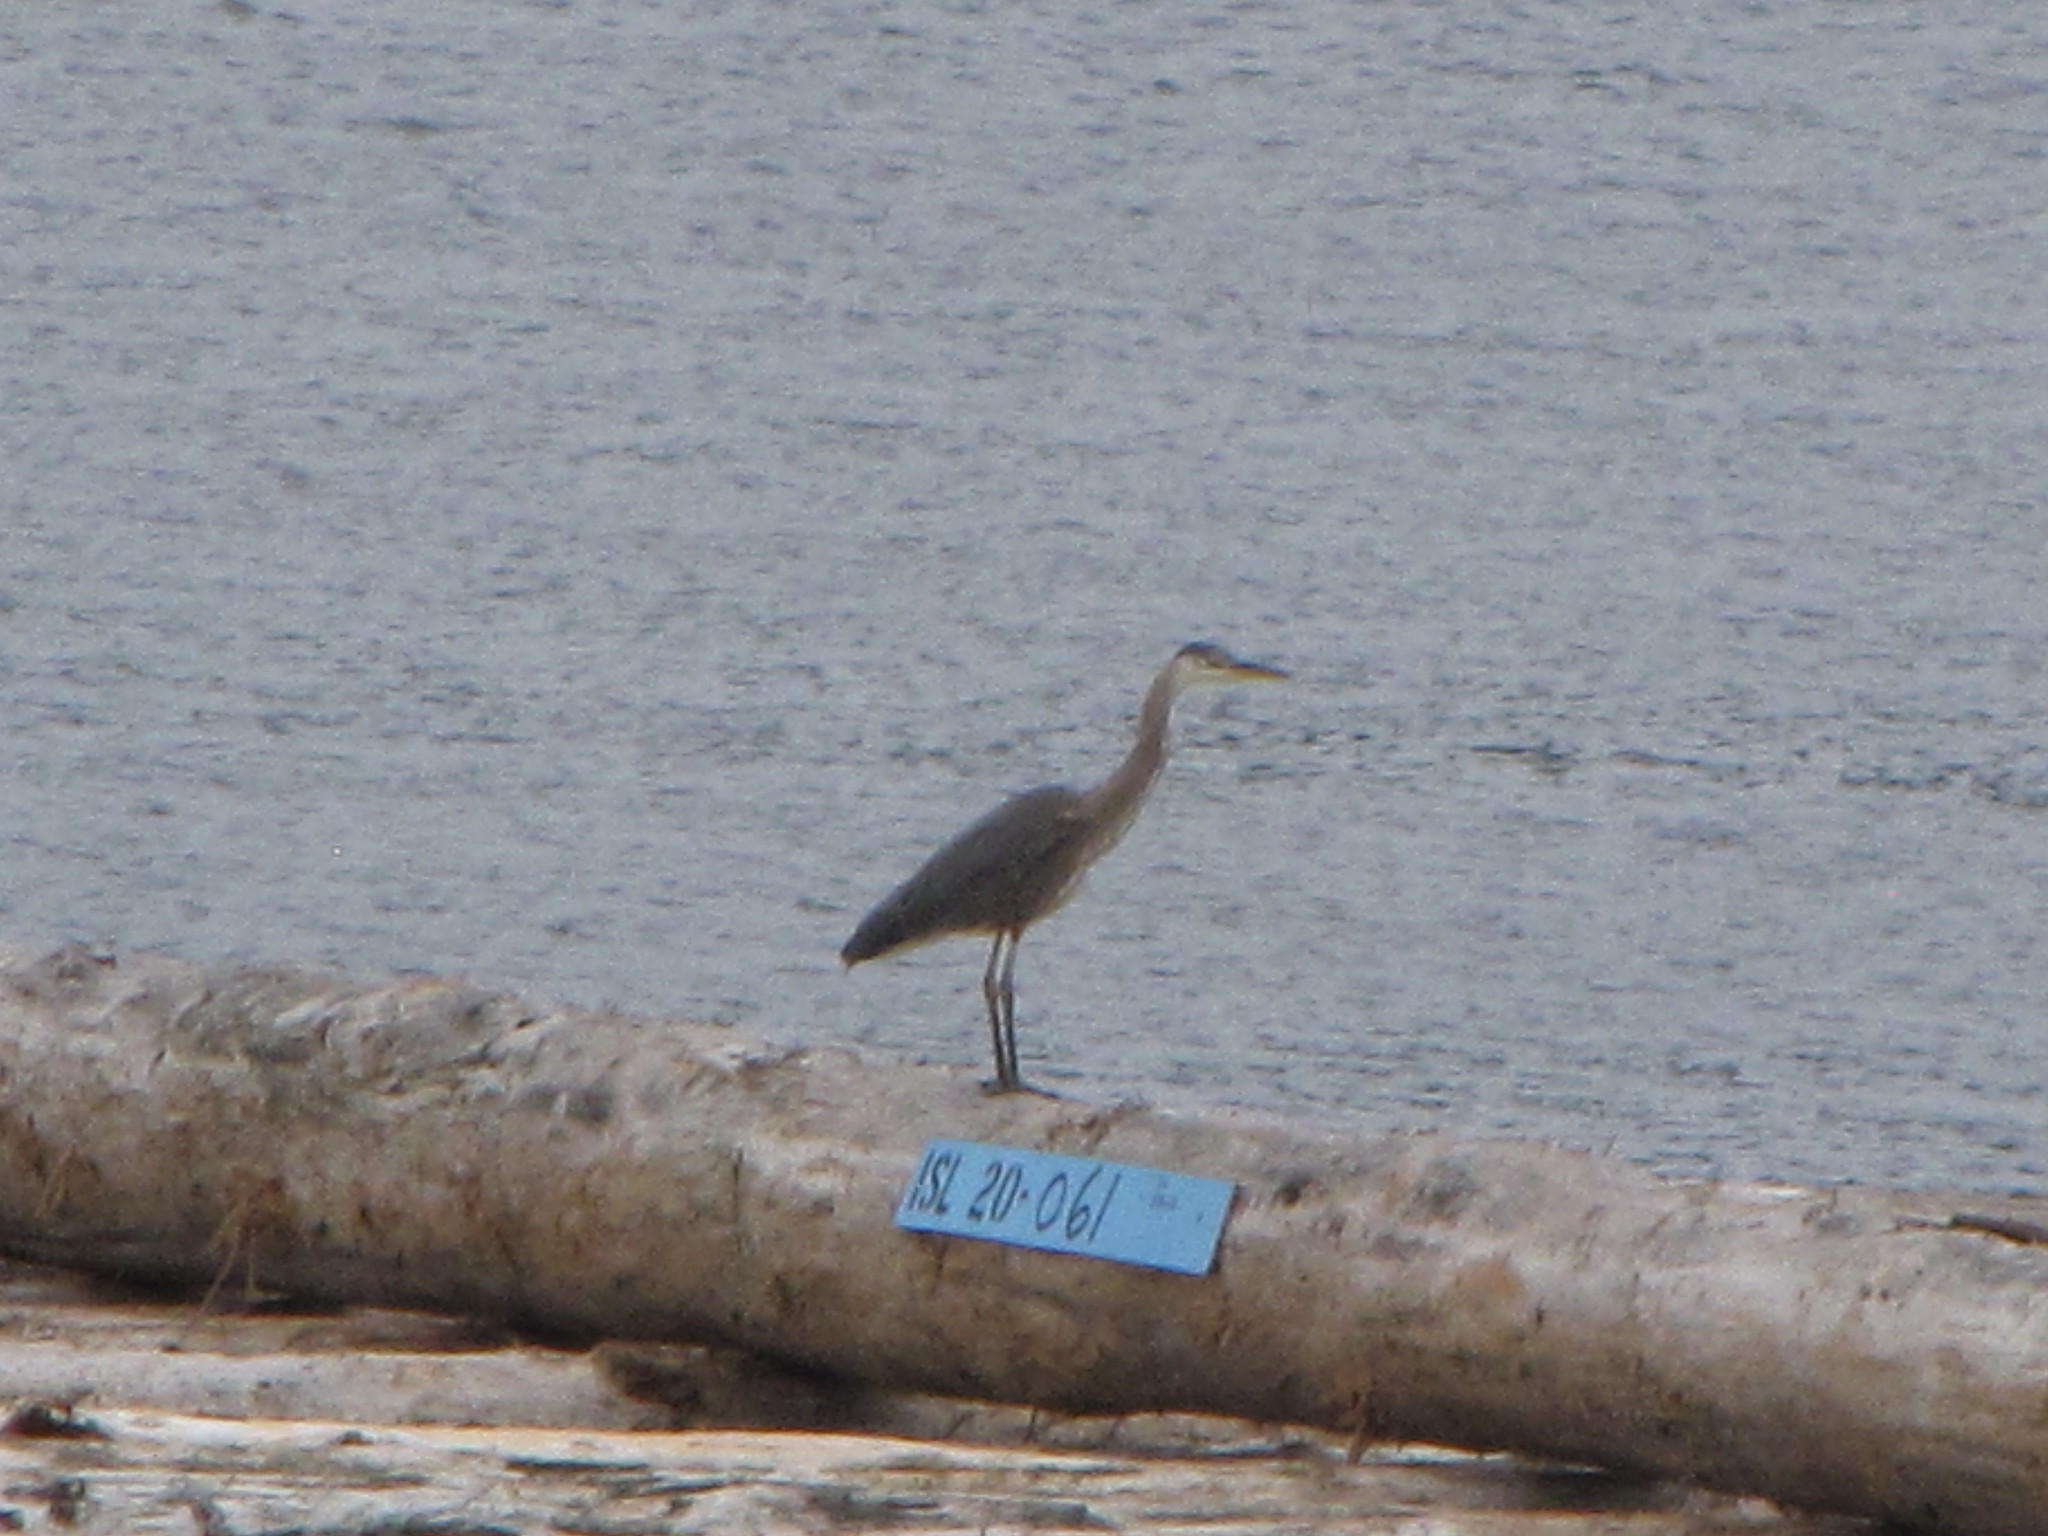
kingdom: Animalia
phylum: Chordata
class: Aves
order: Pelecaniformes
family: Ardeidae
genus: Ardea
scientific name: Ardea herodias
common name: Great blue heron
